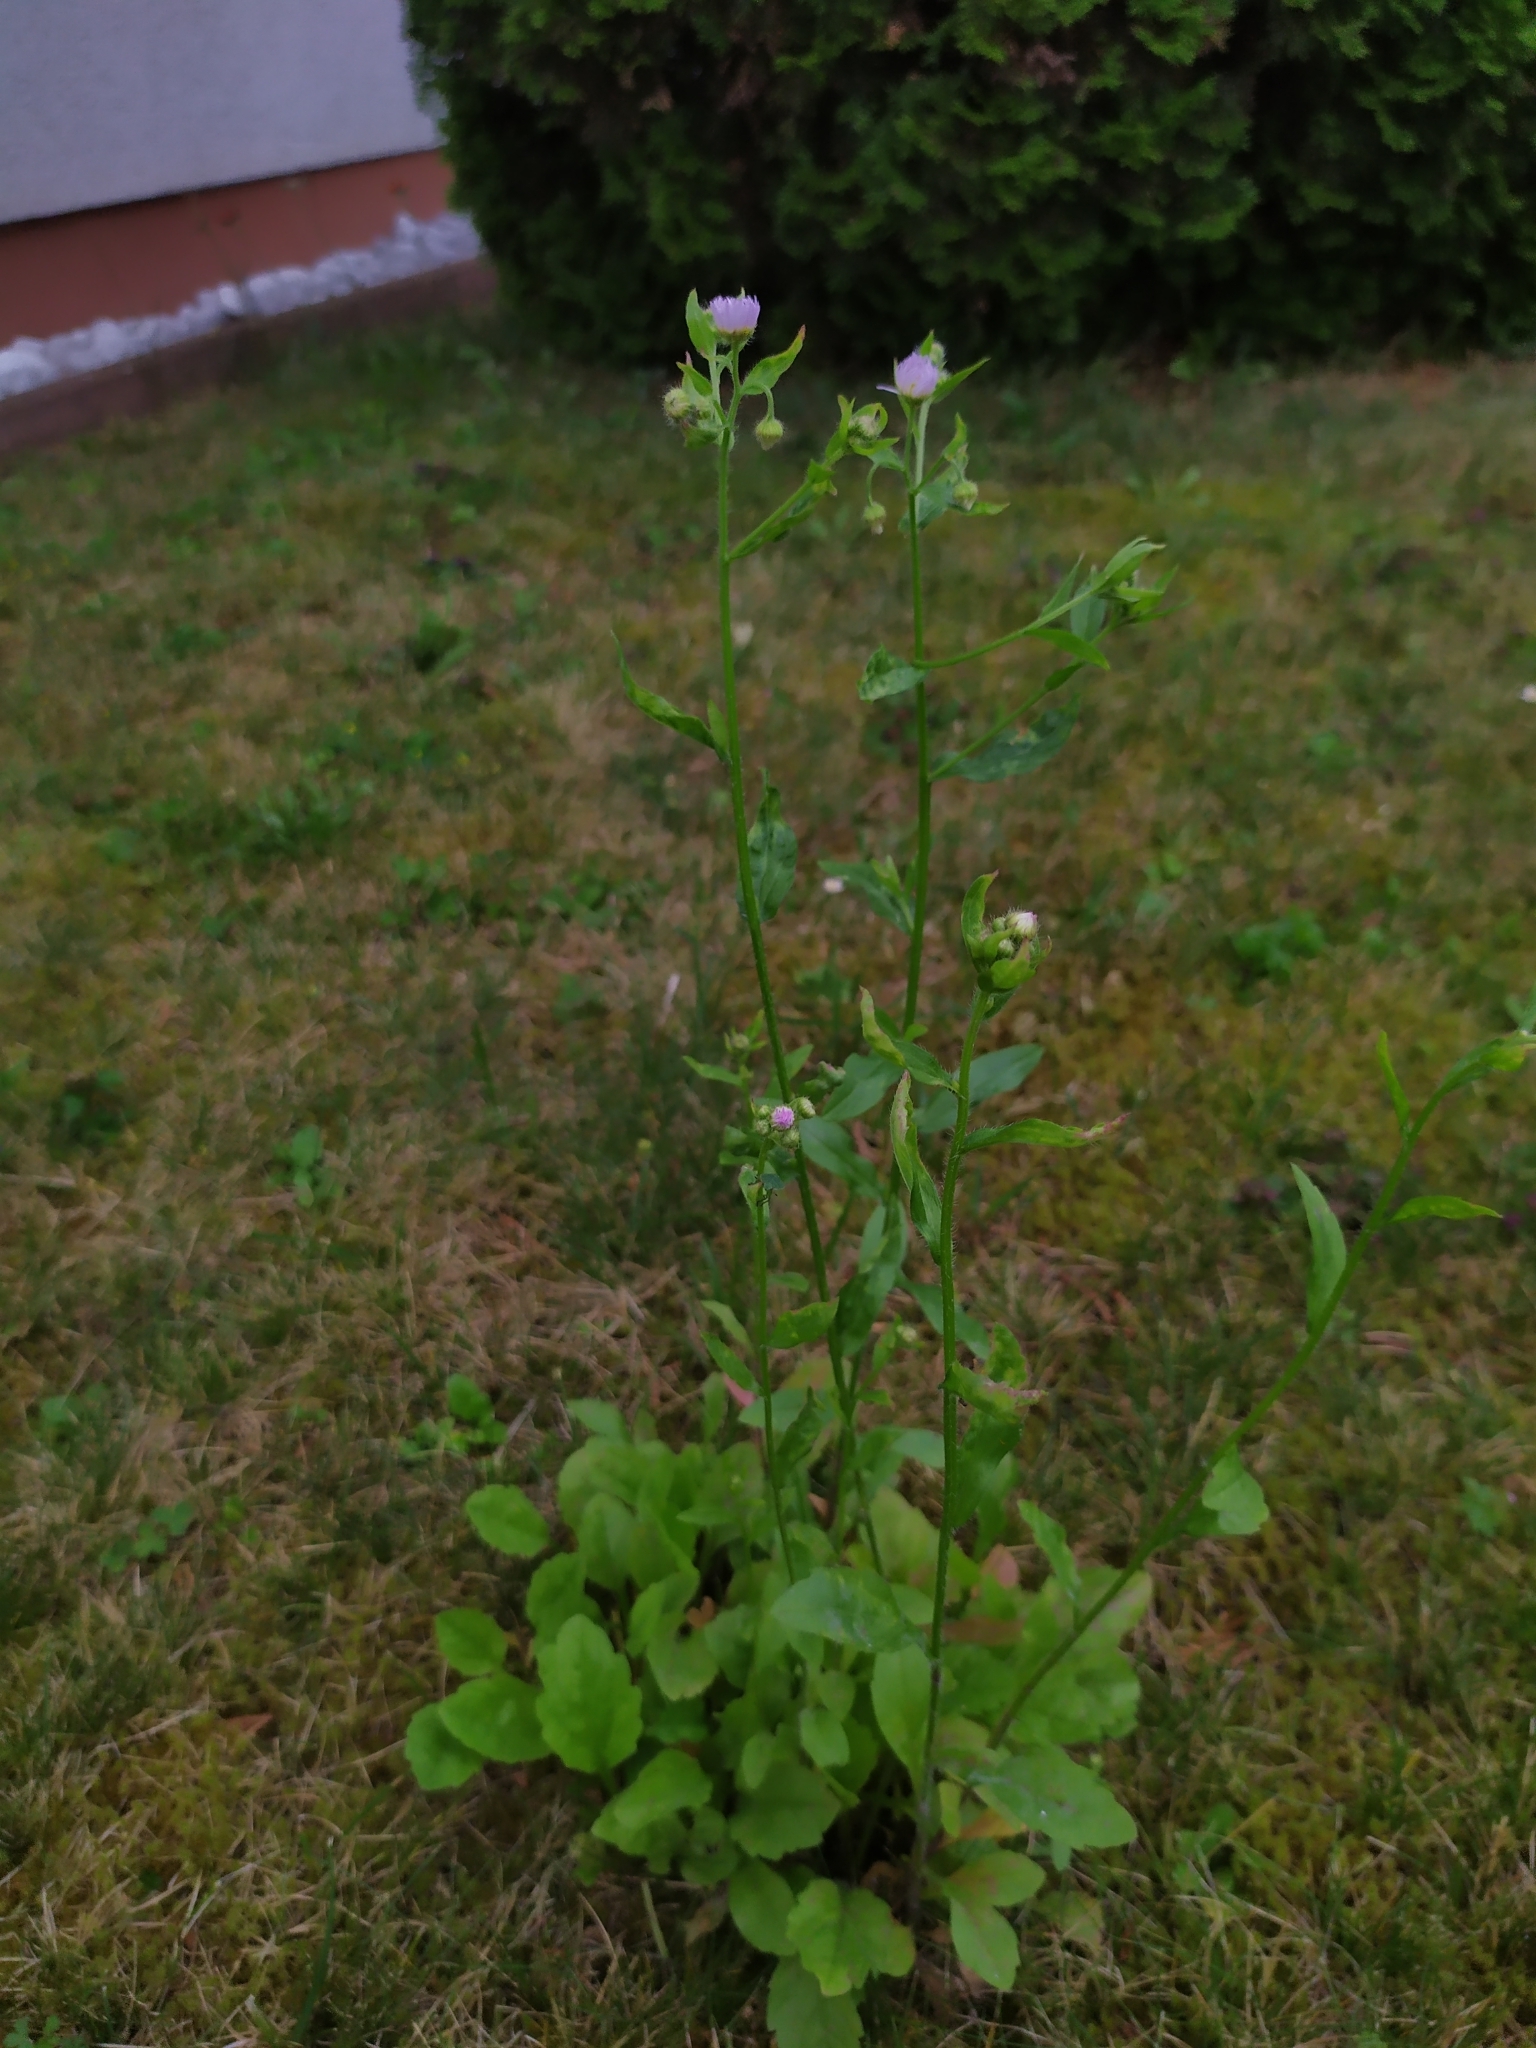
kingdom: Plantae
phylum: Tracheophyta
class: Magnoliopsida
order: Asterales
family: Asteraceae
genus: Erigeron
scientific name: Erigeron annuus
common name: Tall fleabane
